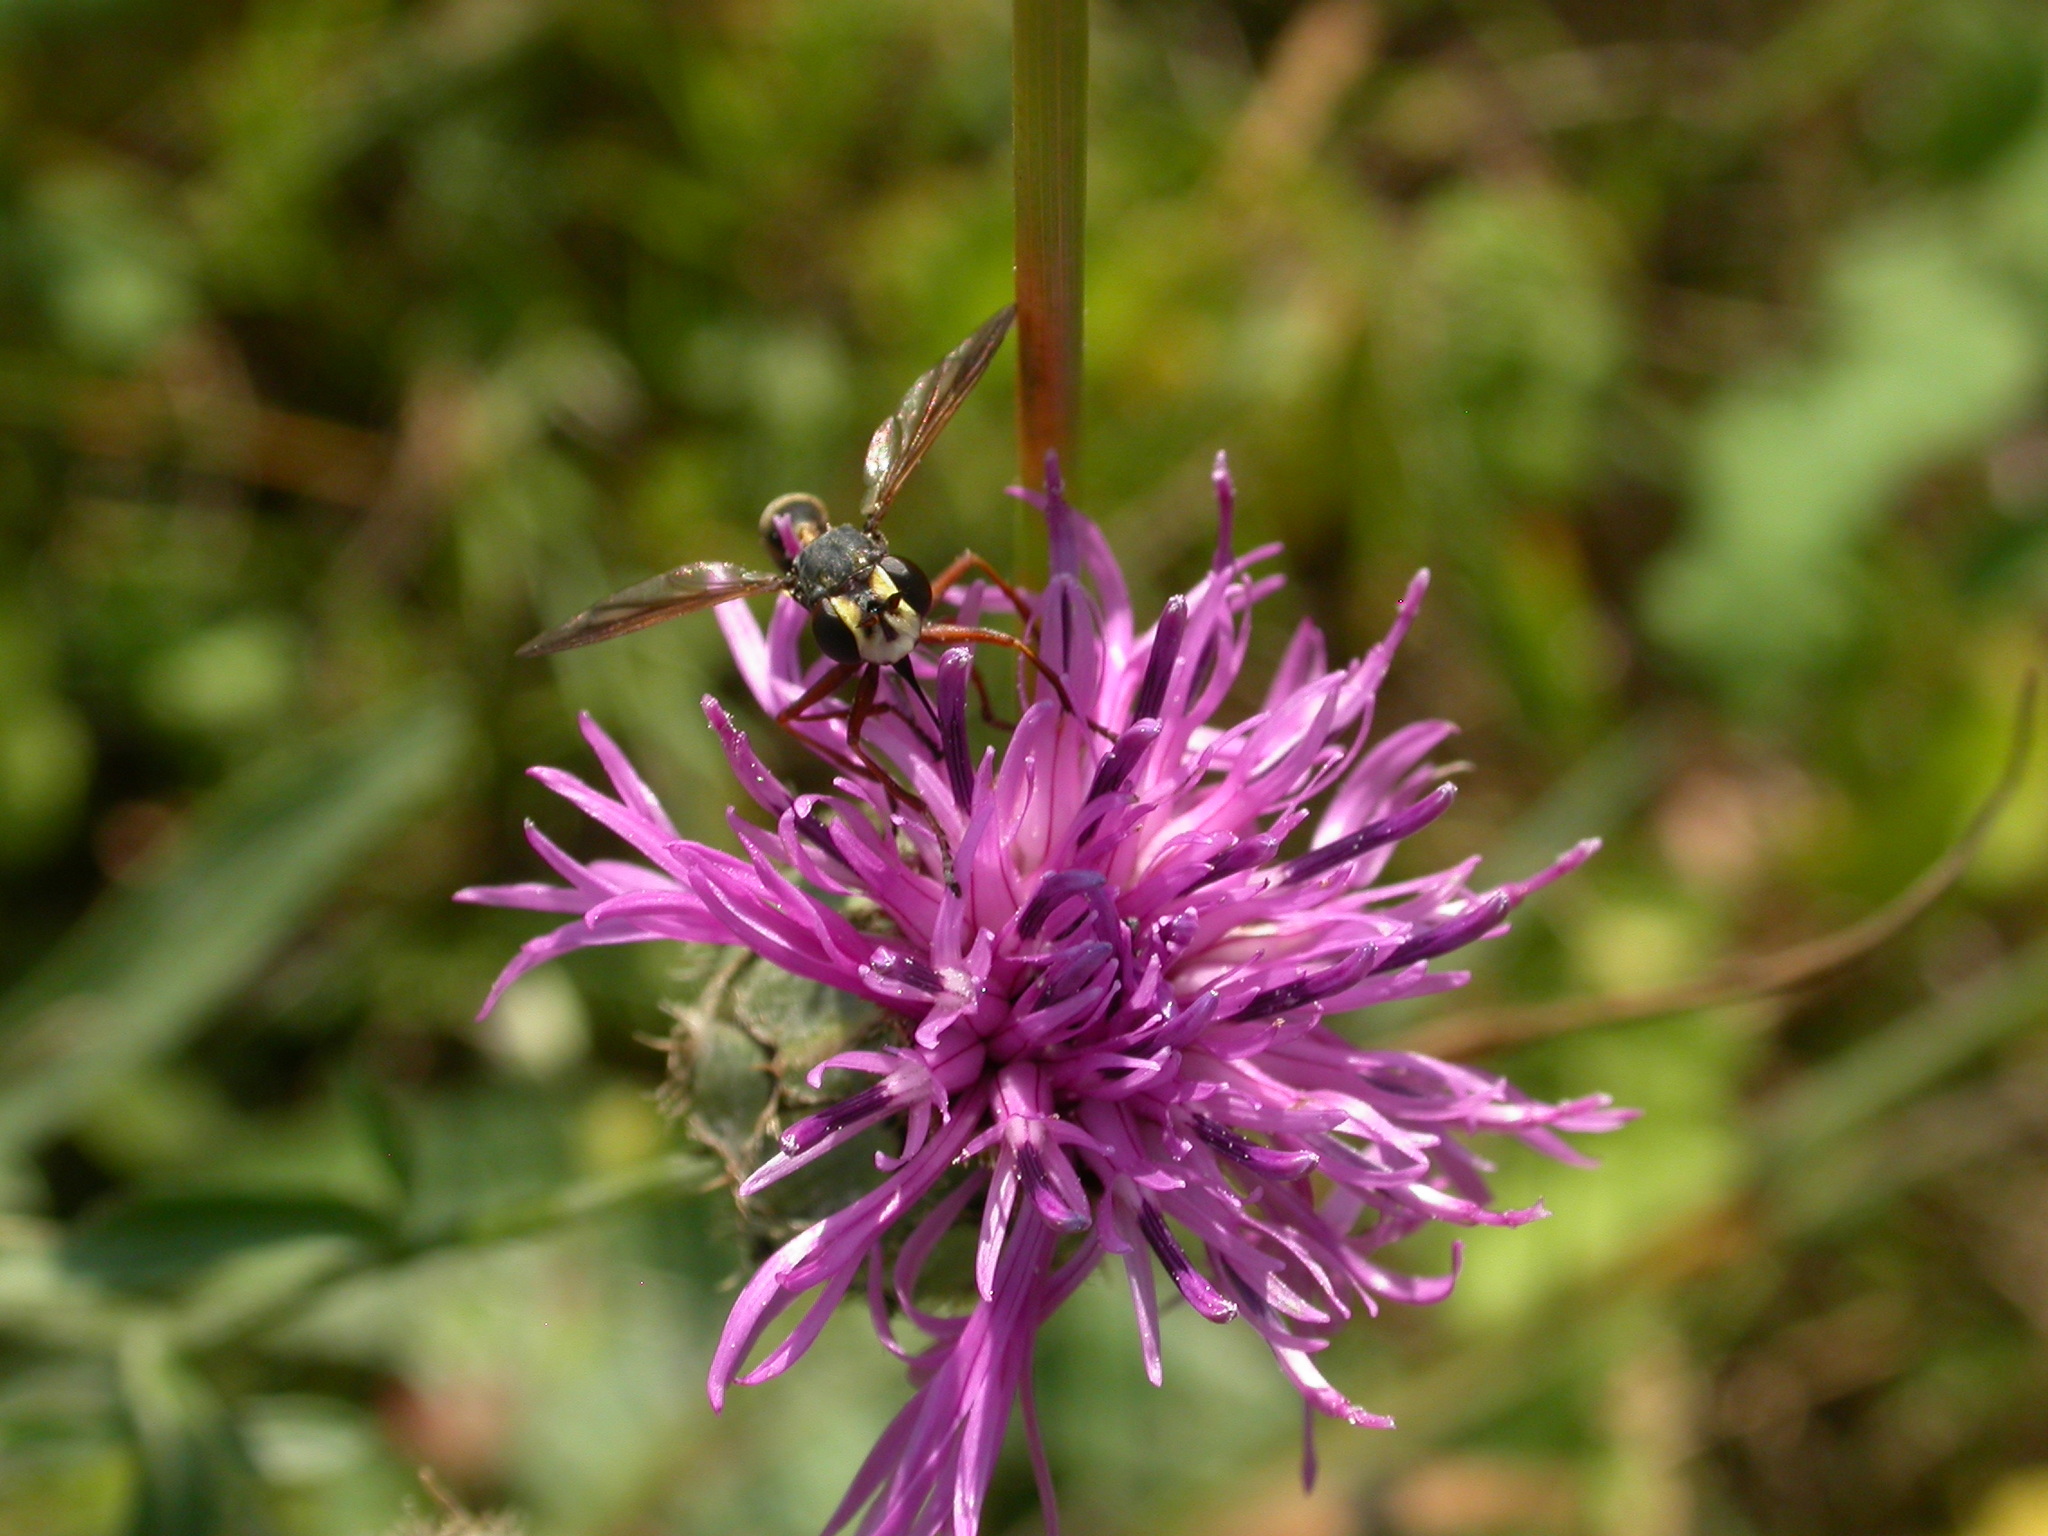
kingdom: Animalia
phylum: Arthropoda
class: Insecta
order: Diptera
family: Conopidae
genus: Physocephala
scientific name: Physocephala rufipes
